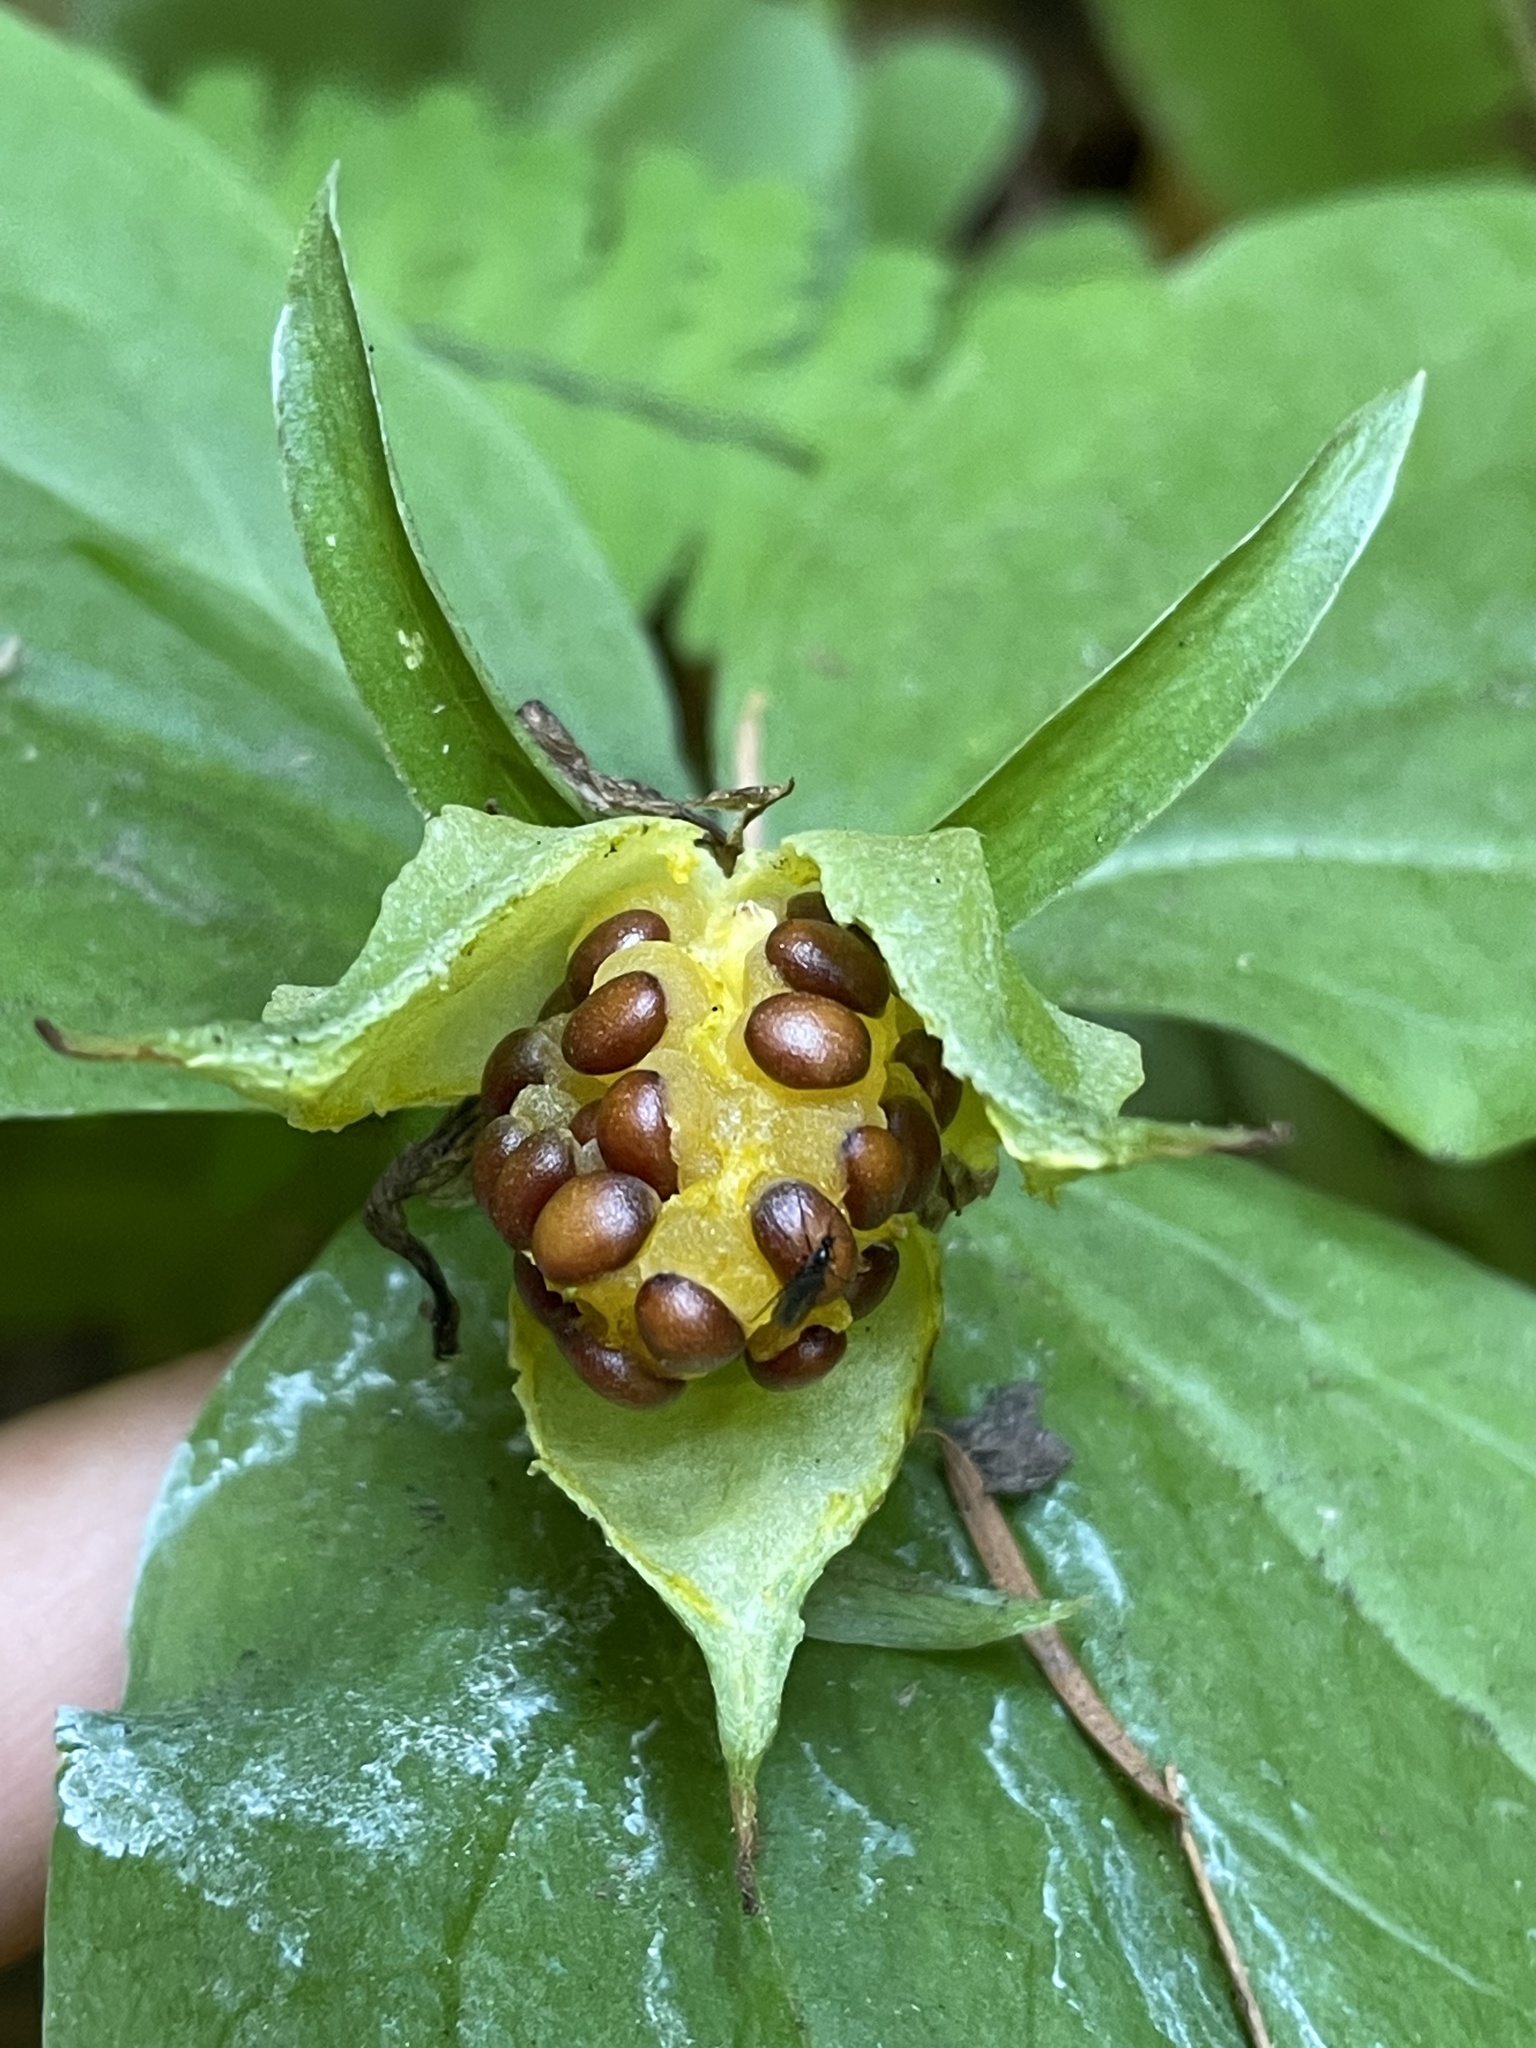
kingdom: Plantae
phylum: Tracheophyta
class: Liliopsida
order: Liliales
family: Melanthiaceae
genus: Trillium
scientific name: Trillium ovatum
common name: Pacific trillium
